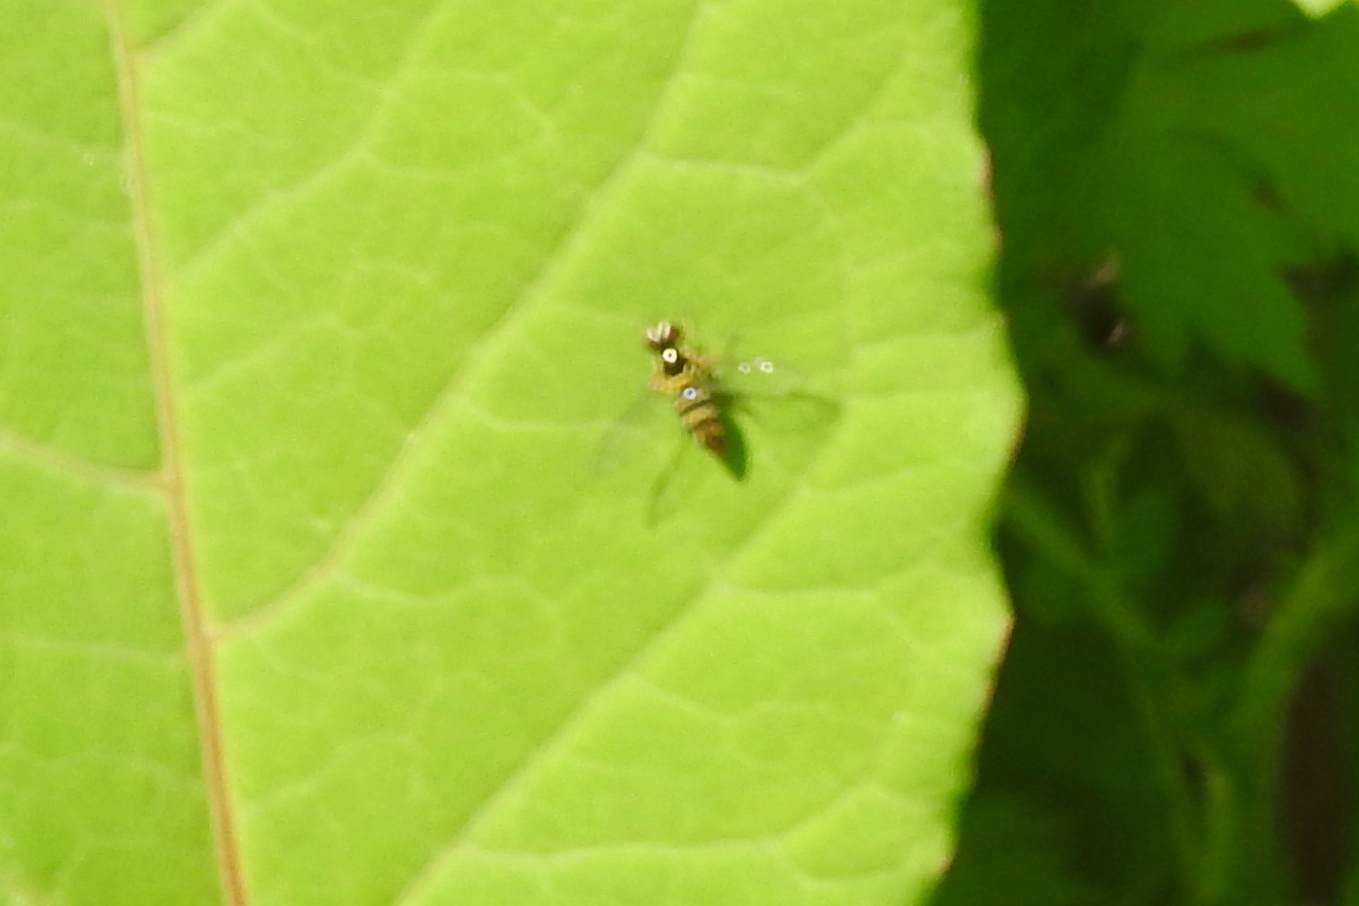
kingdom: Animalia
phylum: Arthropoda
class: Insecta
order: Diptera
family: Syrphidae
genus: Allograpta
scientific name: Allograpta
